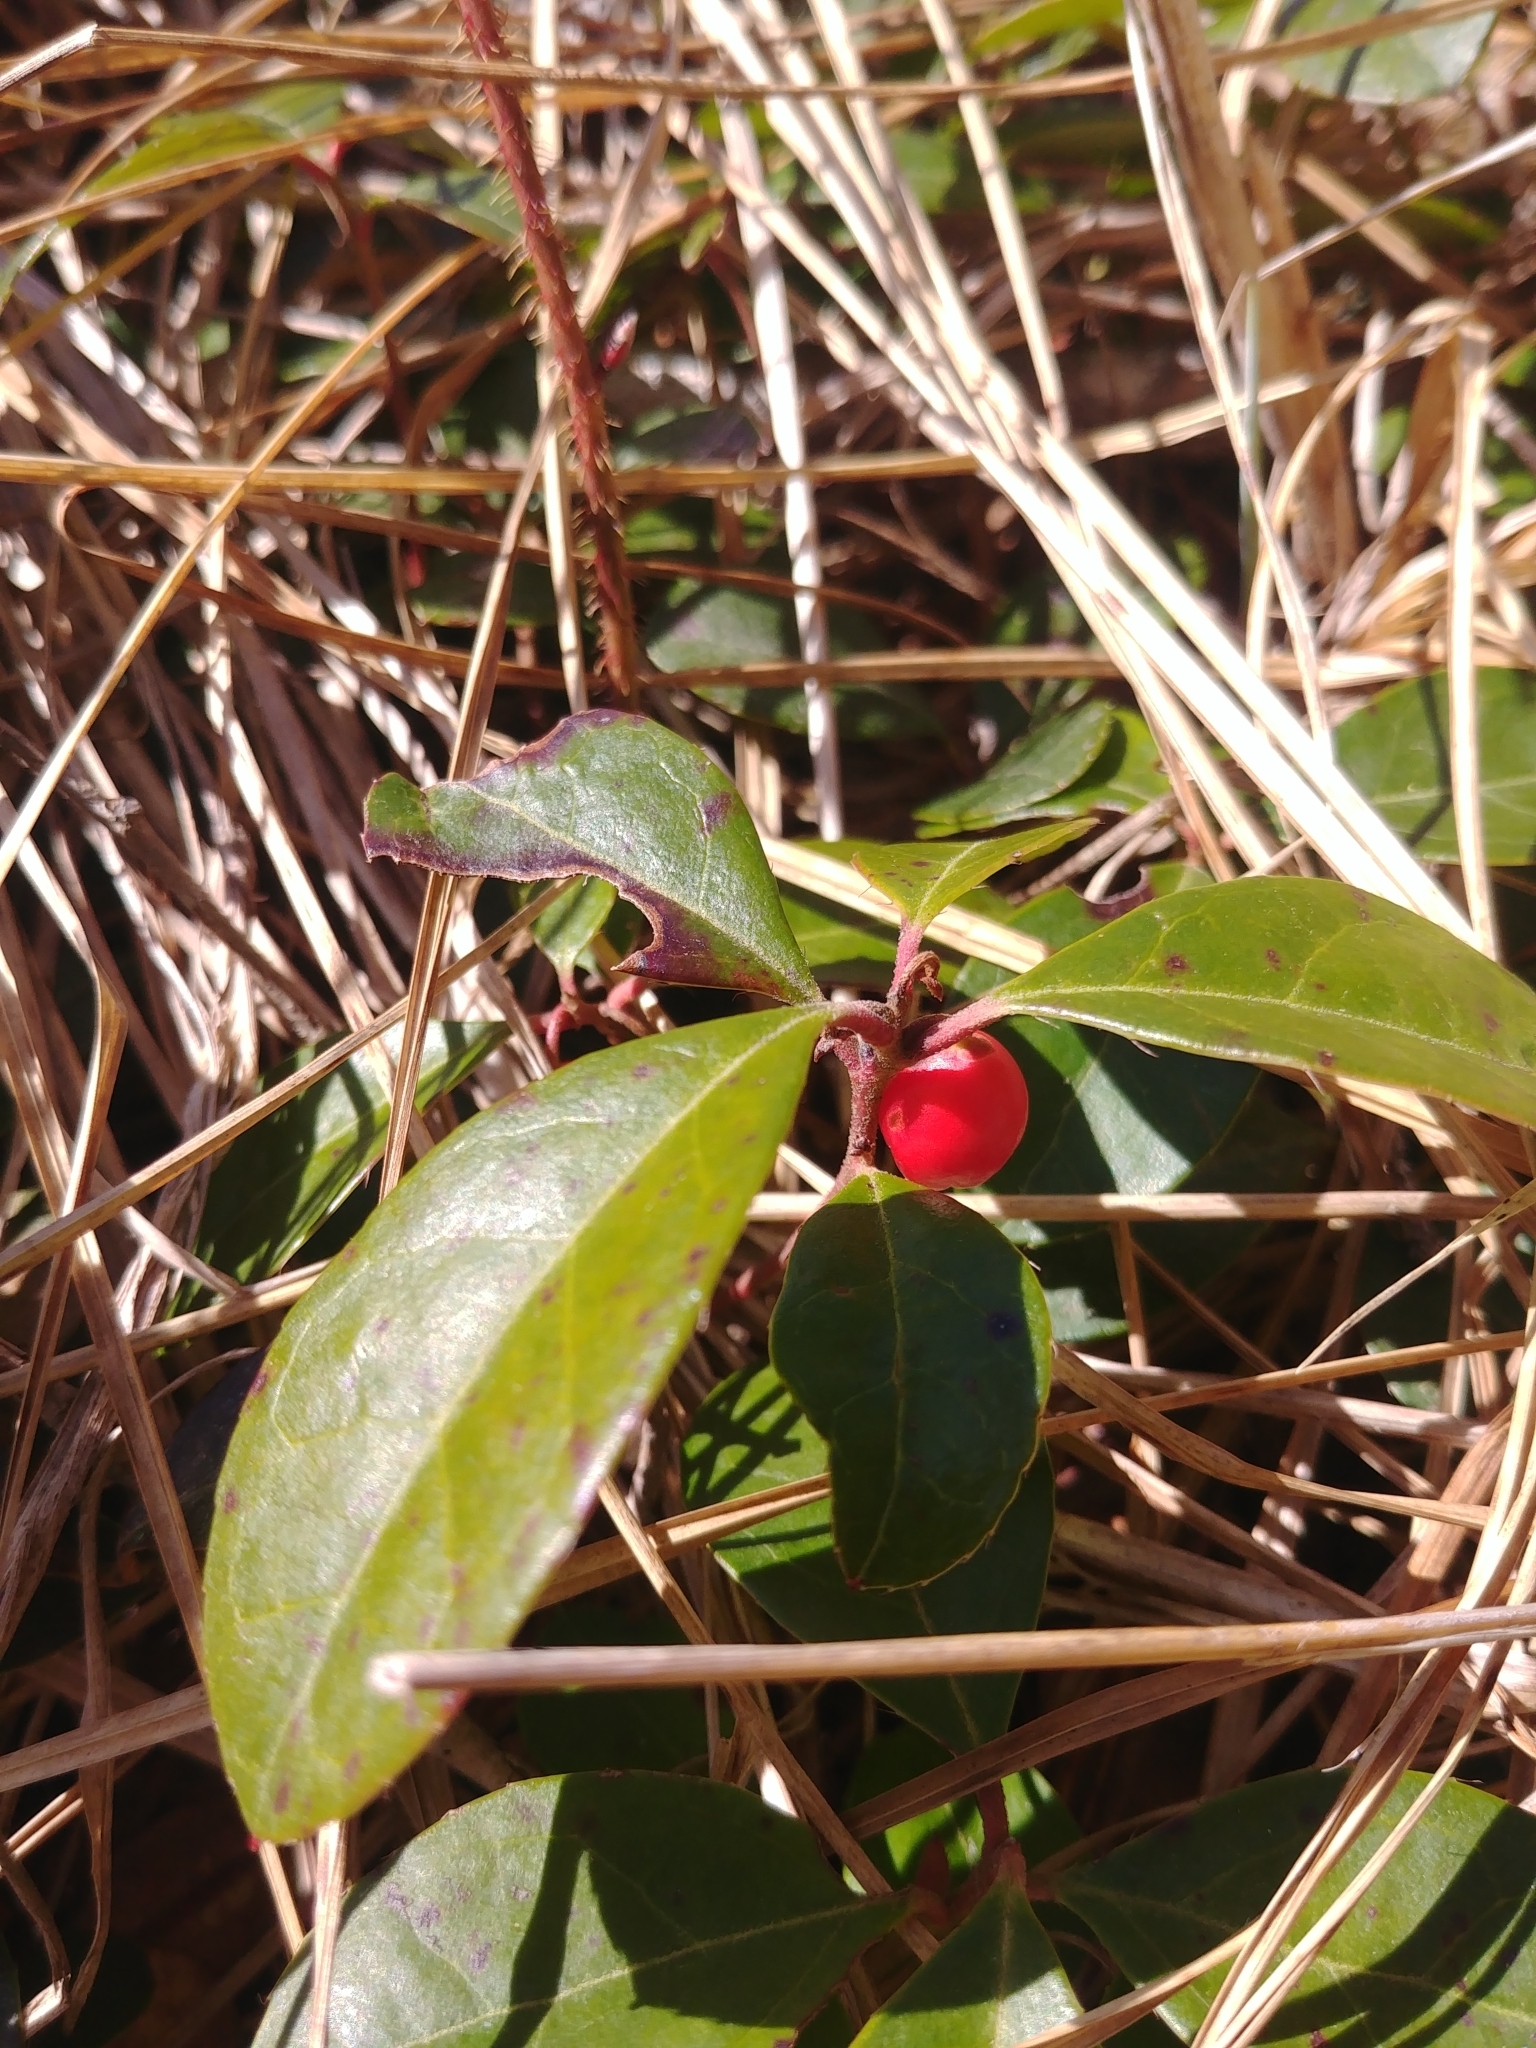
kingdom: Plantae
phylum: Tracheophyta
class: Magnoliopsida
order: Ericales
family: Ericaceae
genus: Gaultheria
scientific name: Gaultheria procumbens
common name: Checkerberry
